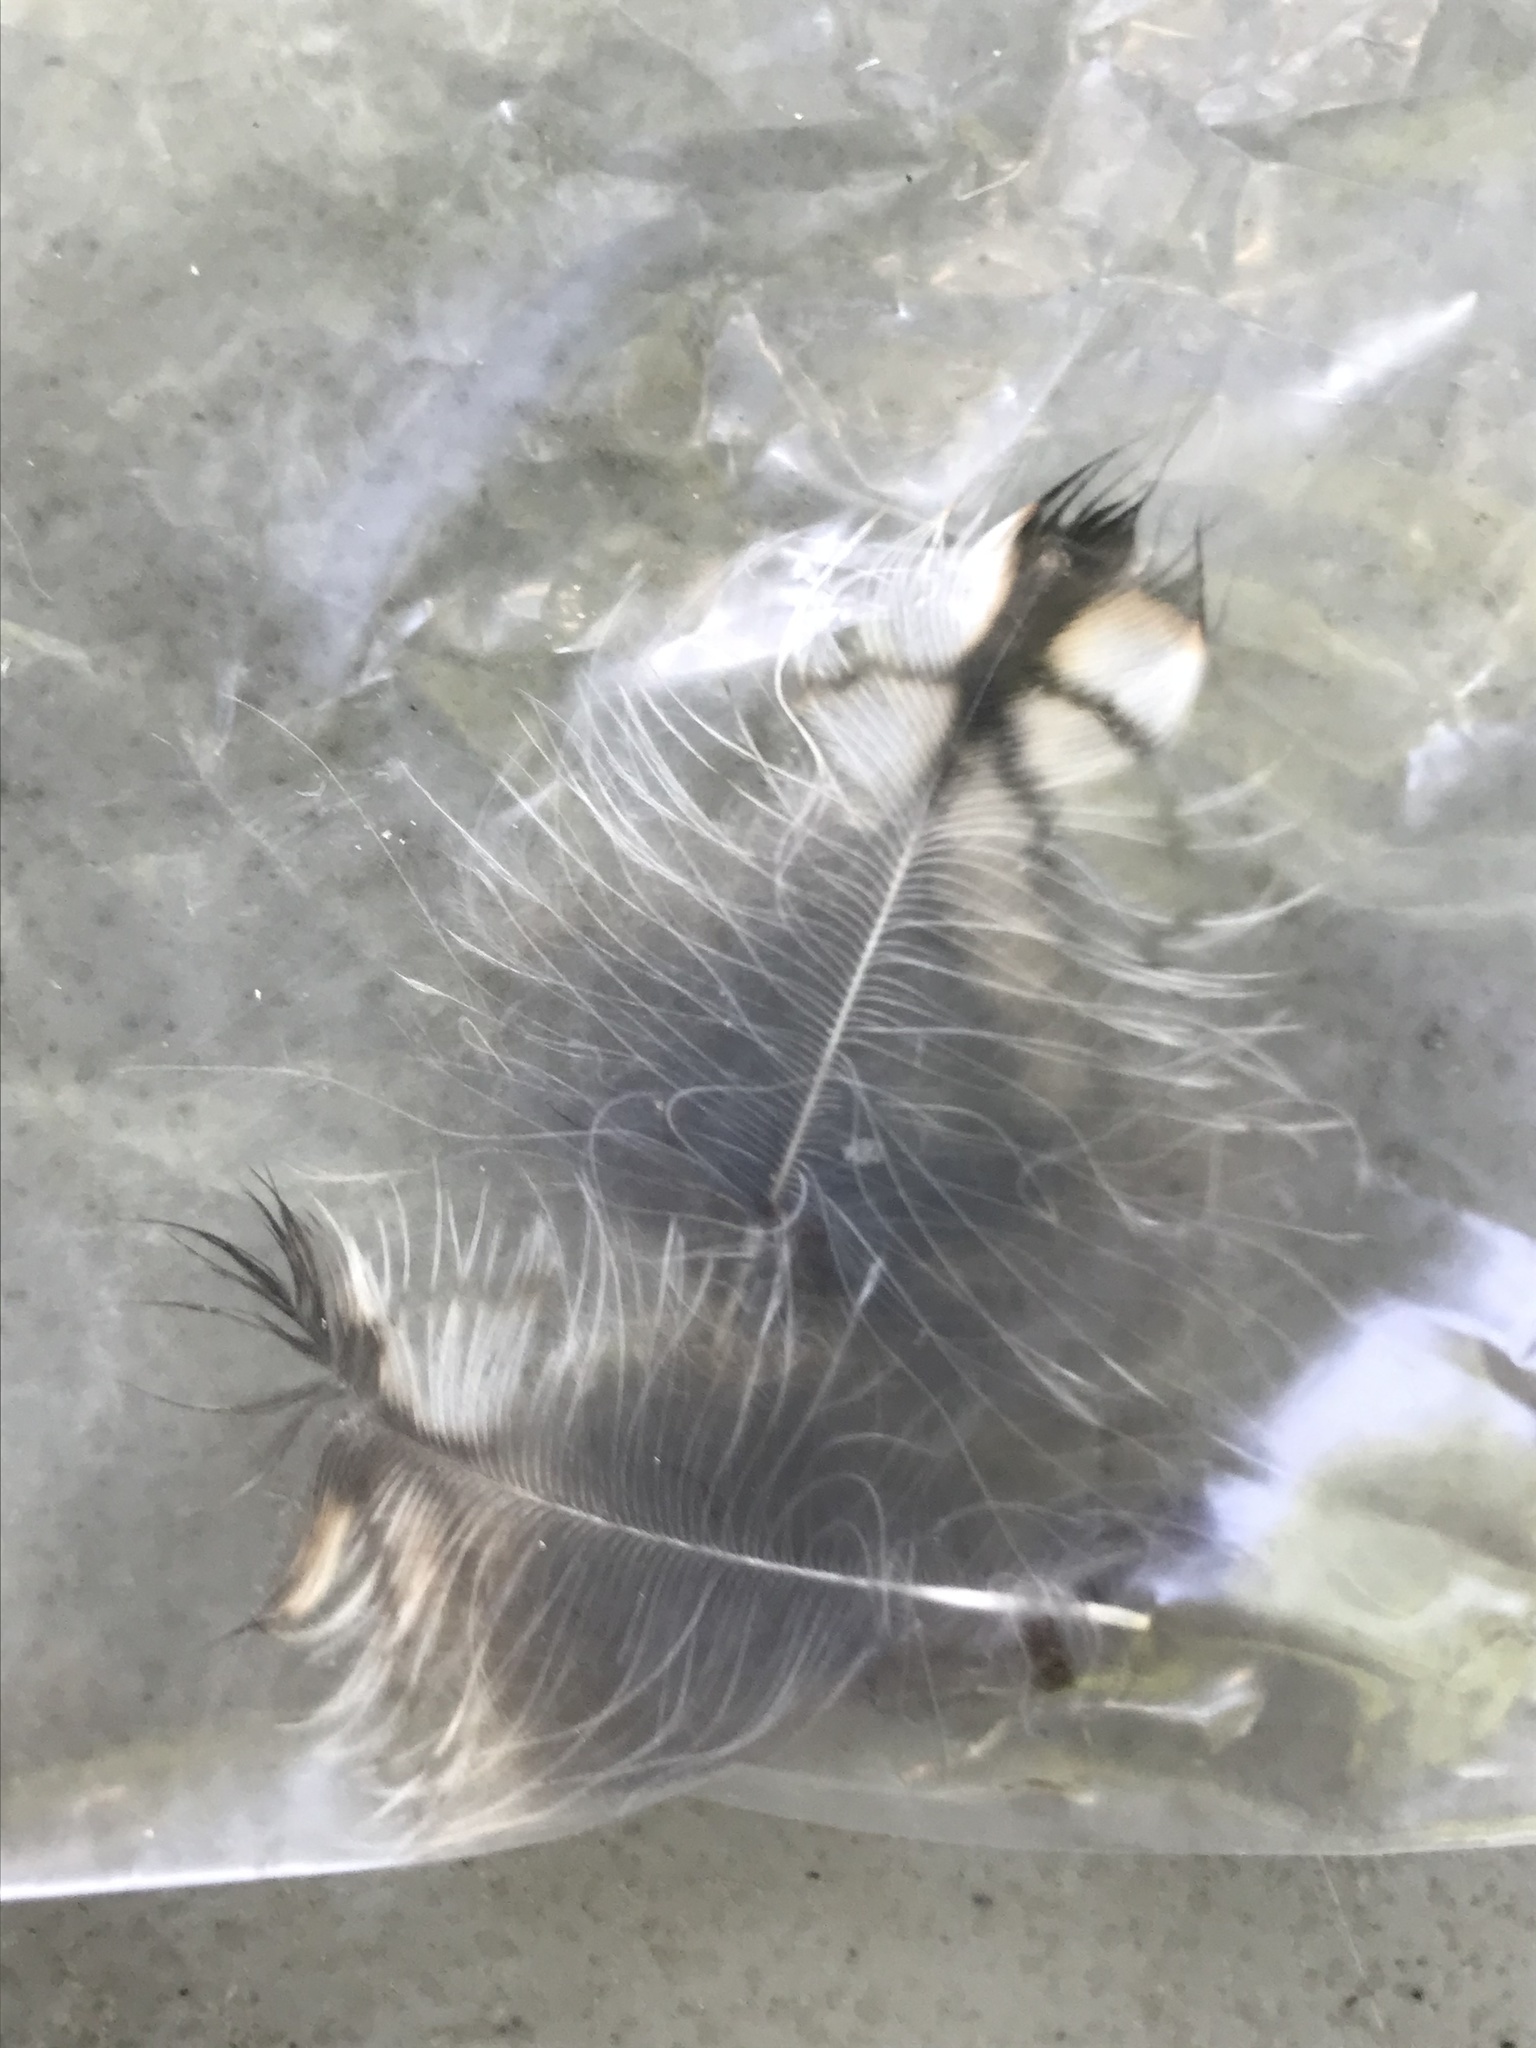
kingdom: Animalia
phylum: Chordata
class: Aves
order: Strigiformes
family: Strigidae
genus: Megascops
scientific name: Megascops asio
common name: Eastern screech-owl
